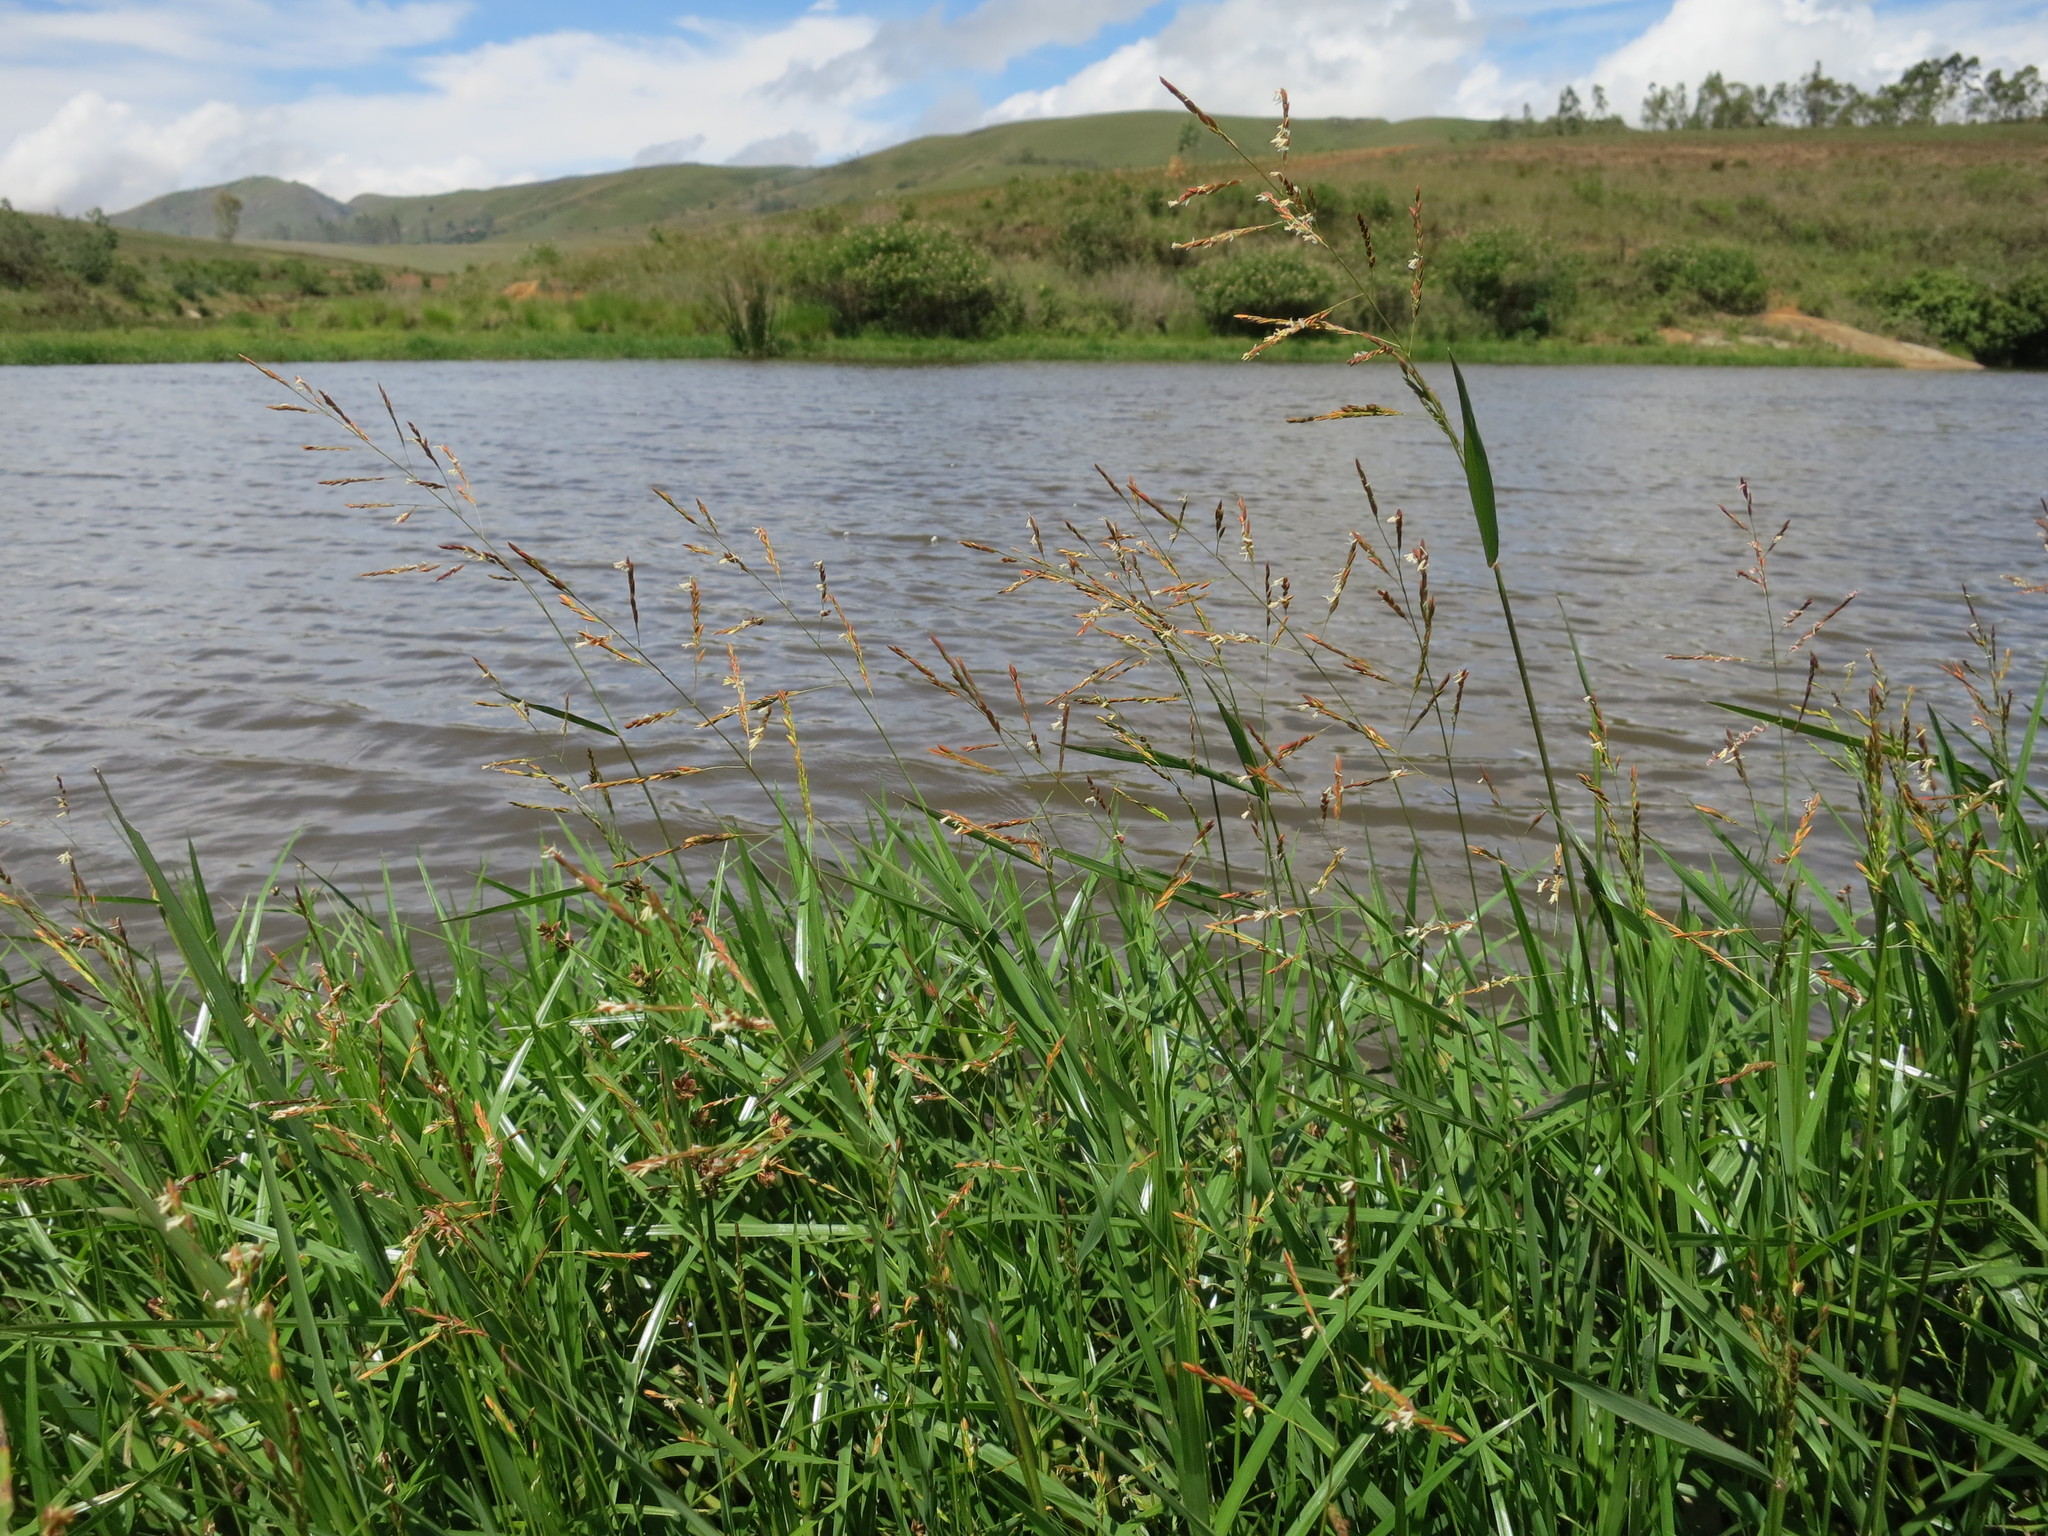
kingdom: Plantae
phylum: Tracheophyta
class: Liliopsida
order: Poales
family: Poaceae
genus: Leersia
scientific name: Leersia hexandra
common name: Southern cut grass
